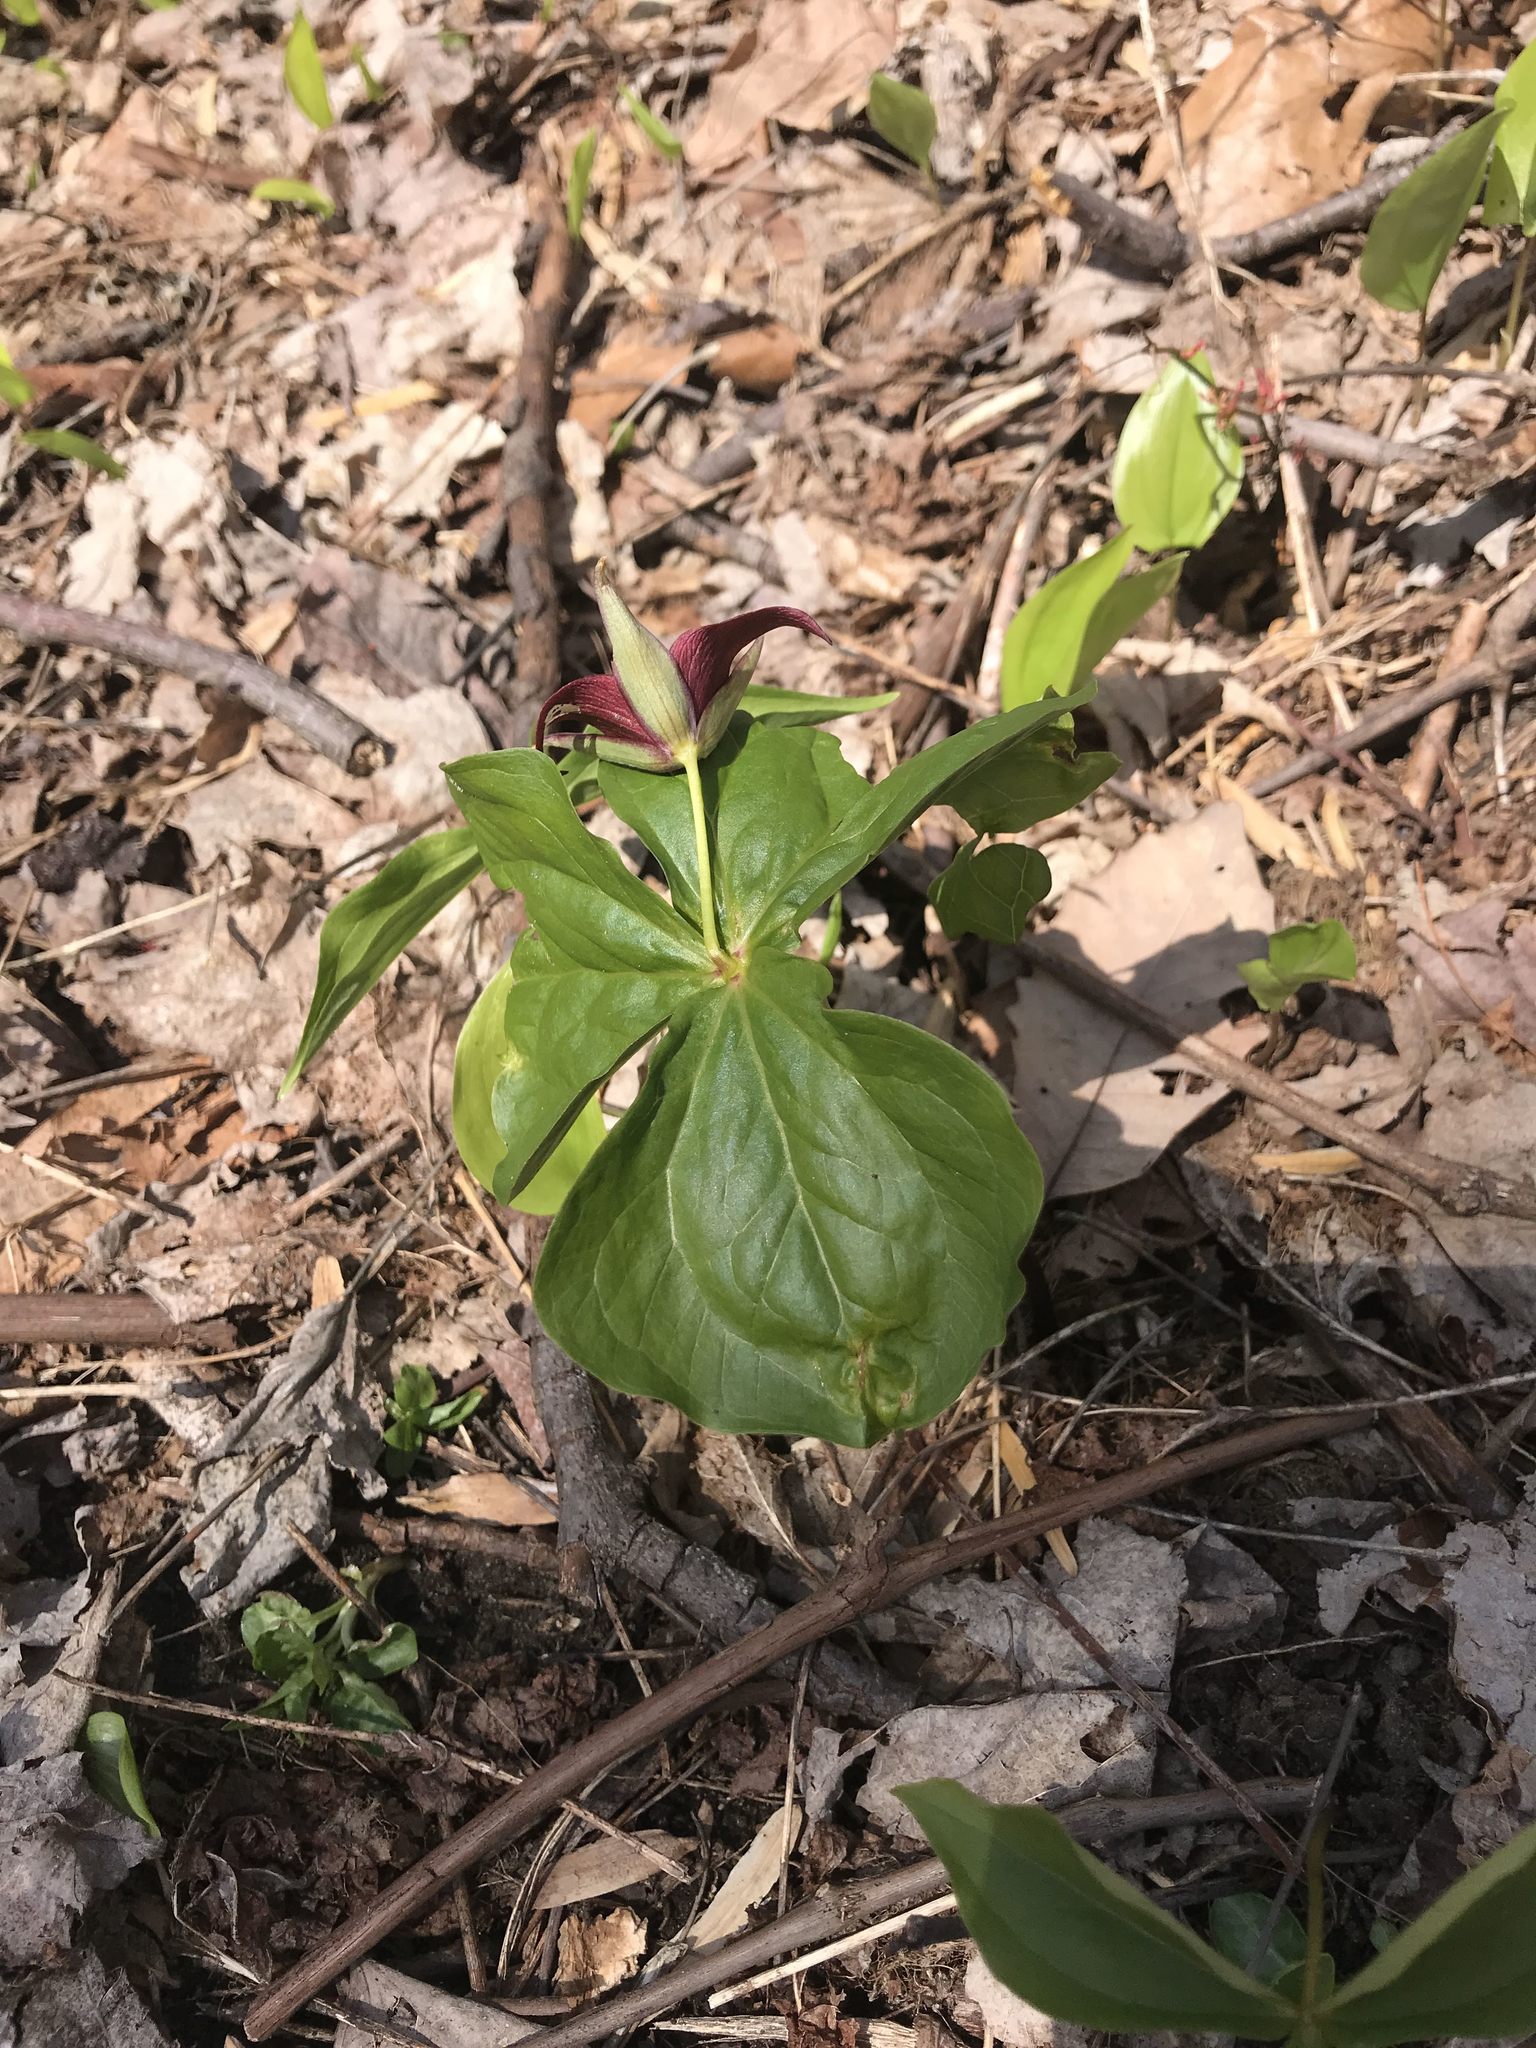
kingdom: Plantae
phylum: Tracheophyta
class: Liliopsida
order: Liliales
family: Melanthiaceae
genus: Trillium
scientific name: Trillium erectum
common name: Purple trillium
